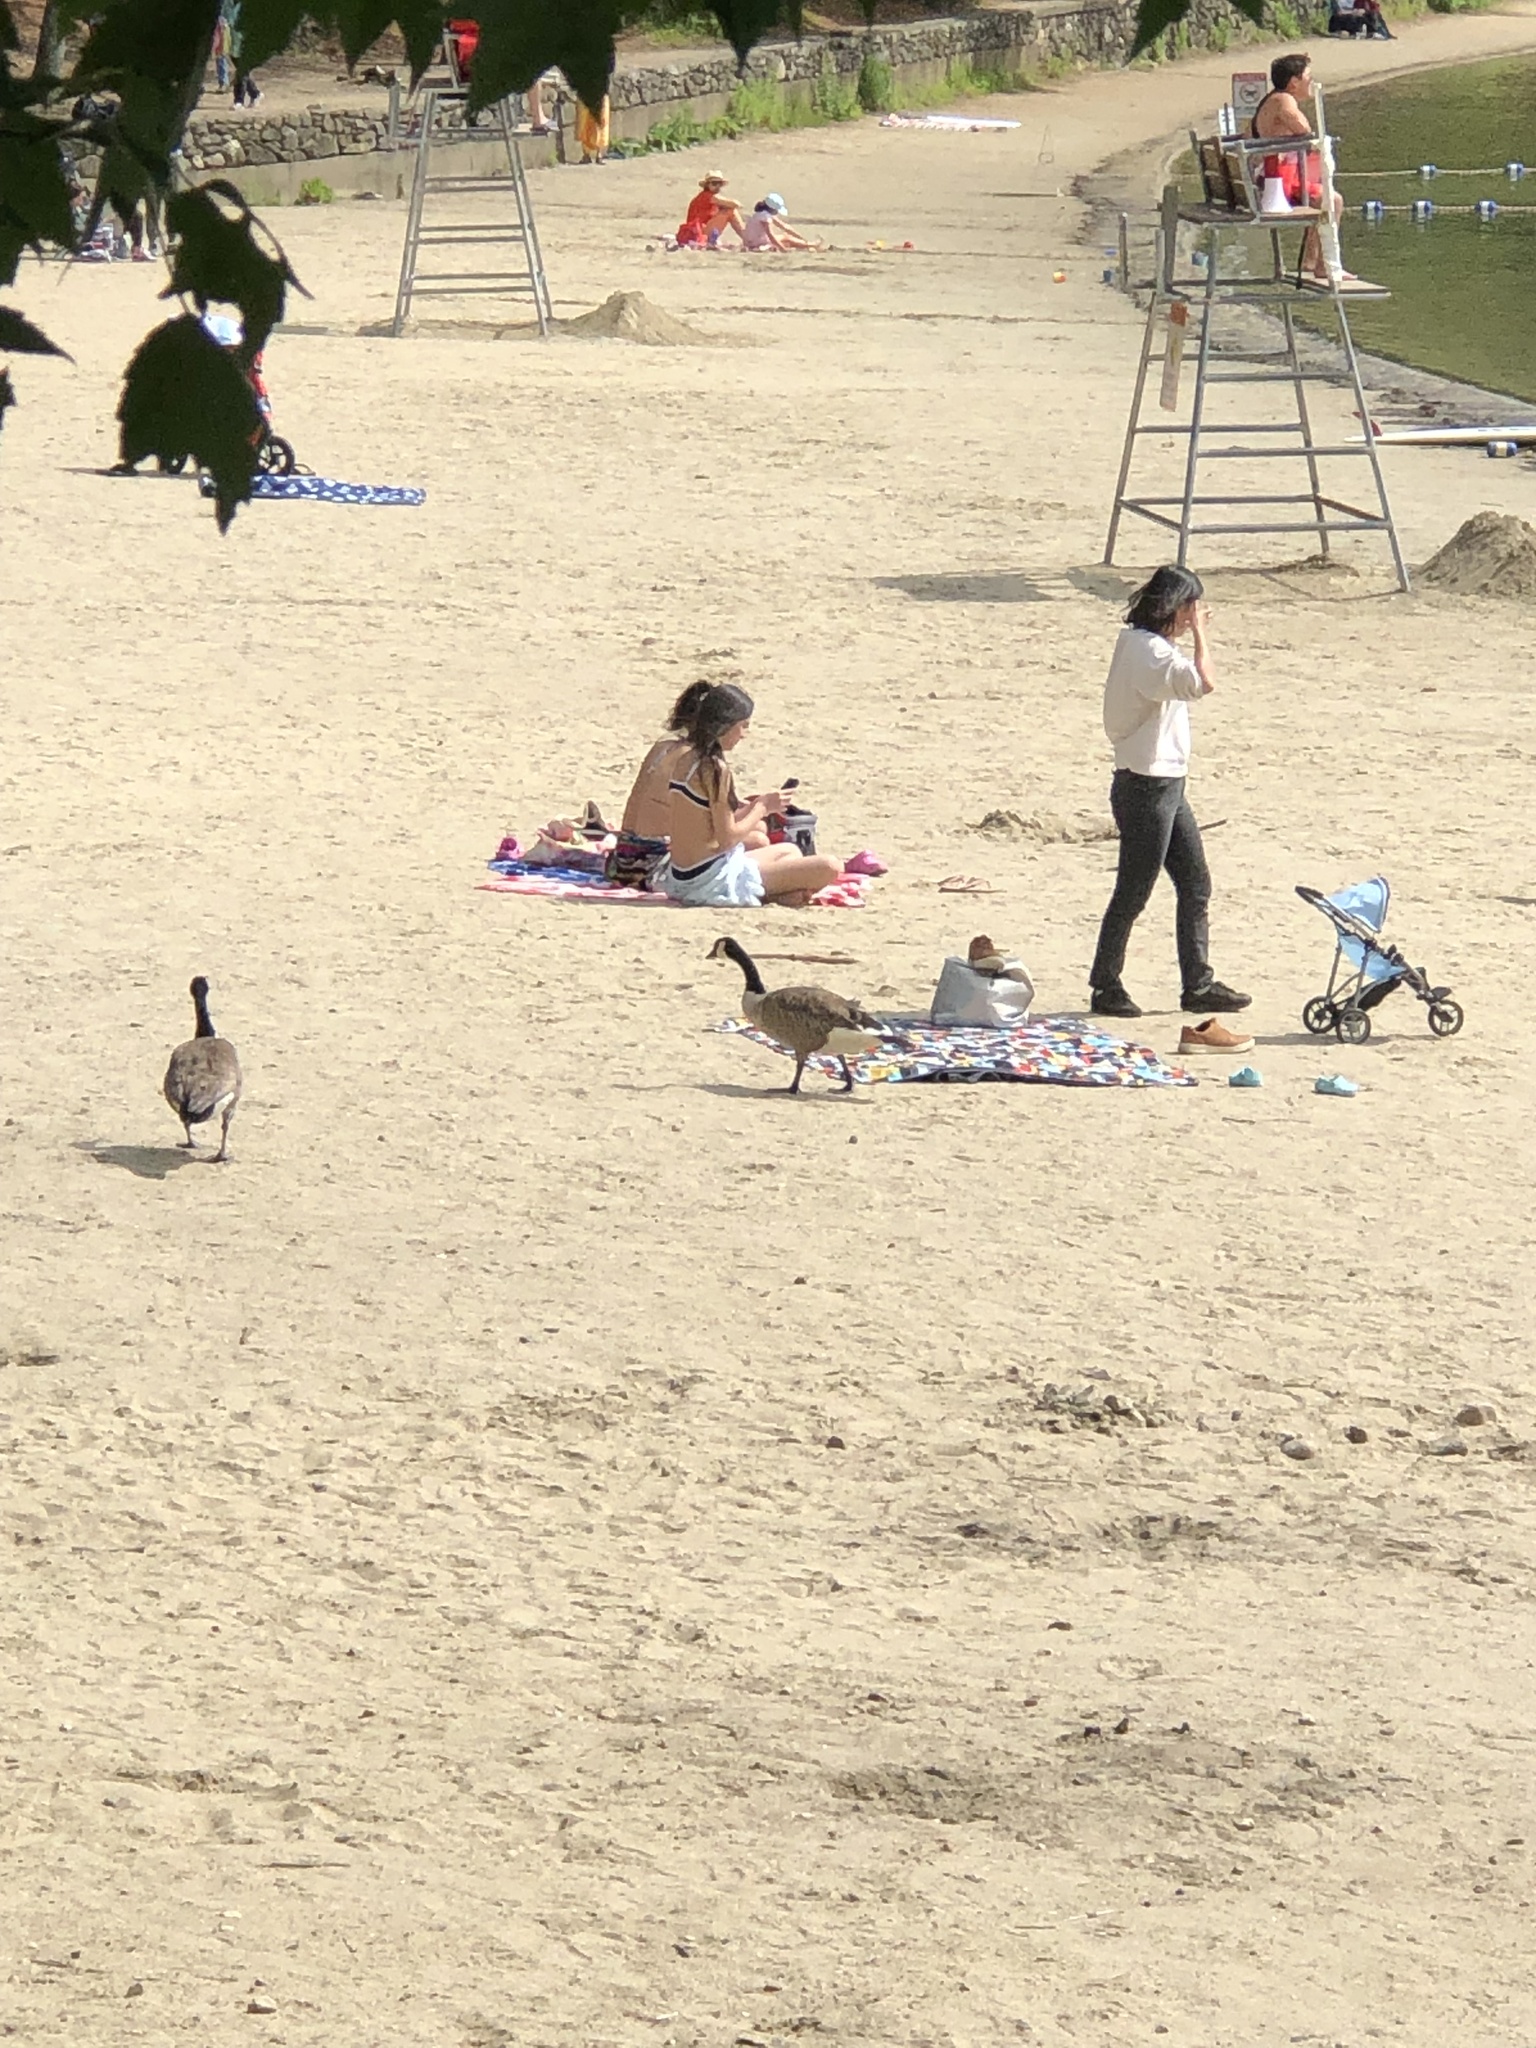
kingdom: Animalia
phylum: Chordata
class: Aves
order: Anseriformes
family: Anatidae
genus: Branta
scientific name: Branta canadensis
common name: Canada goose
